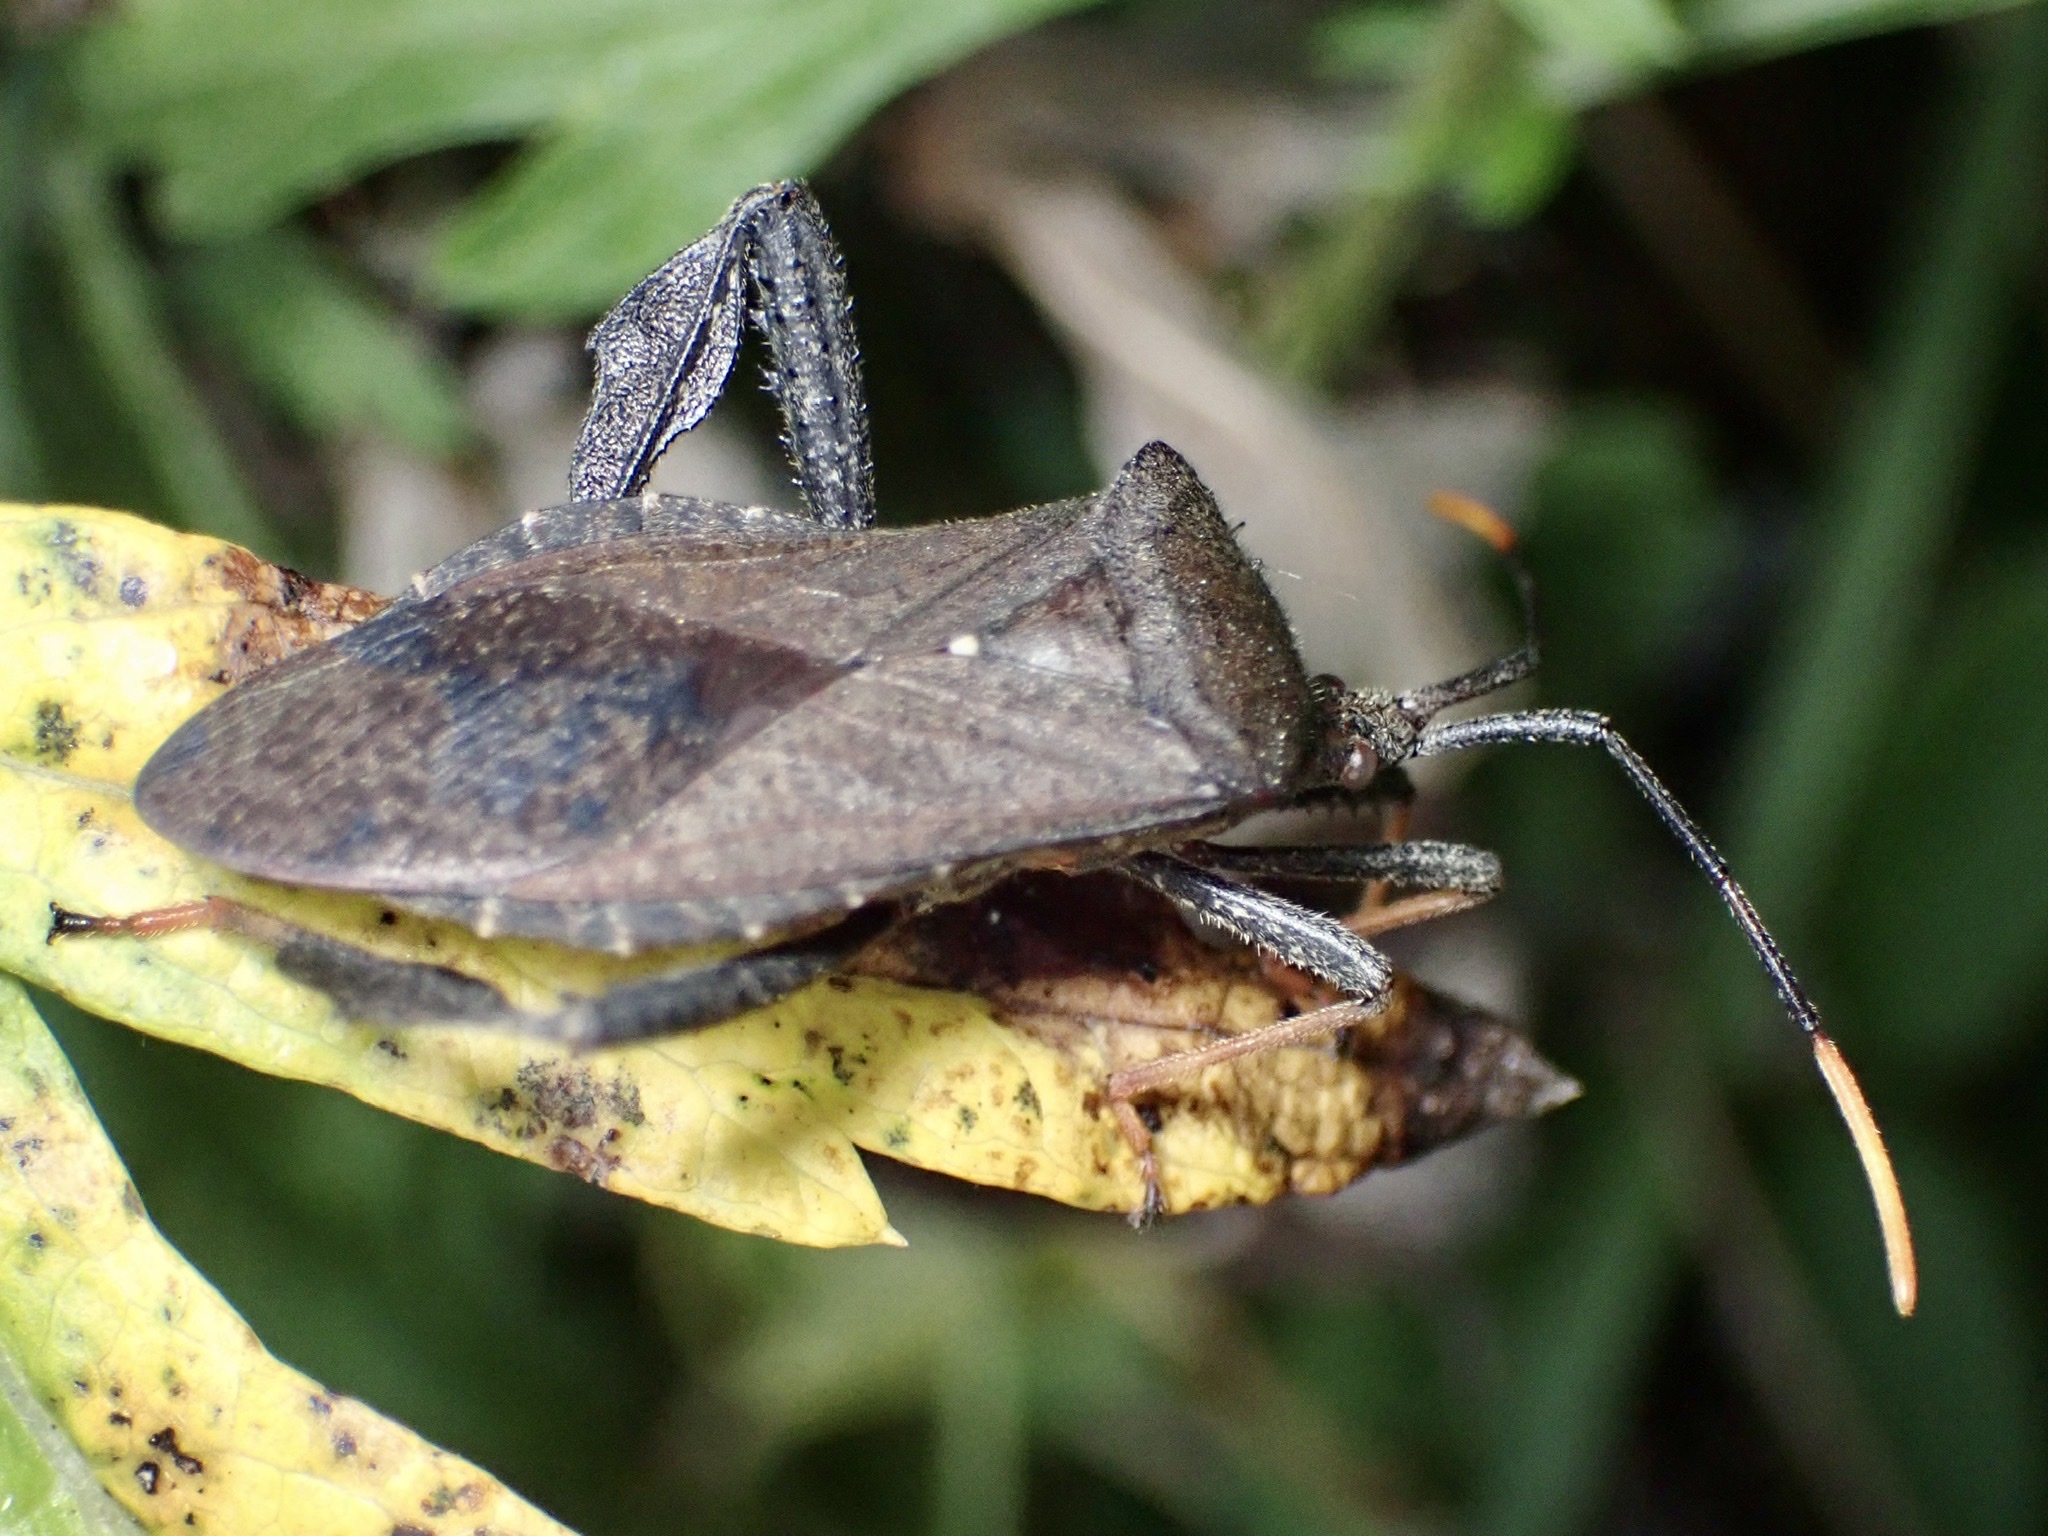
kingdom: Animalia
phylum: Arthropoda
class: Insecta
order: Hemiptera
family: Coreidae
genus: Acanthocephala
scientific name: Acanthocephala terminalis
